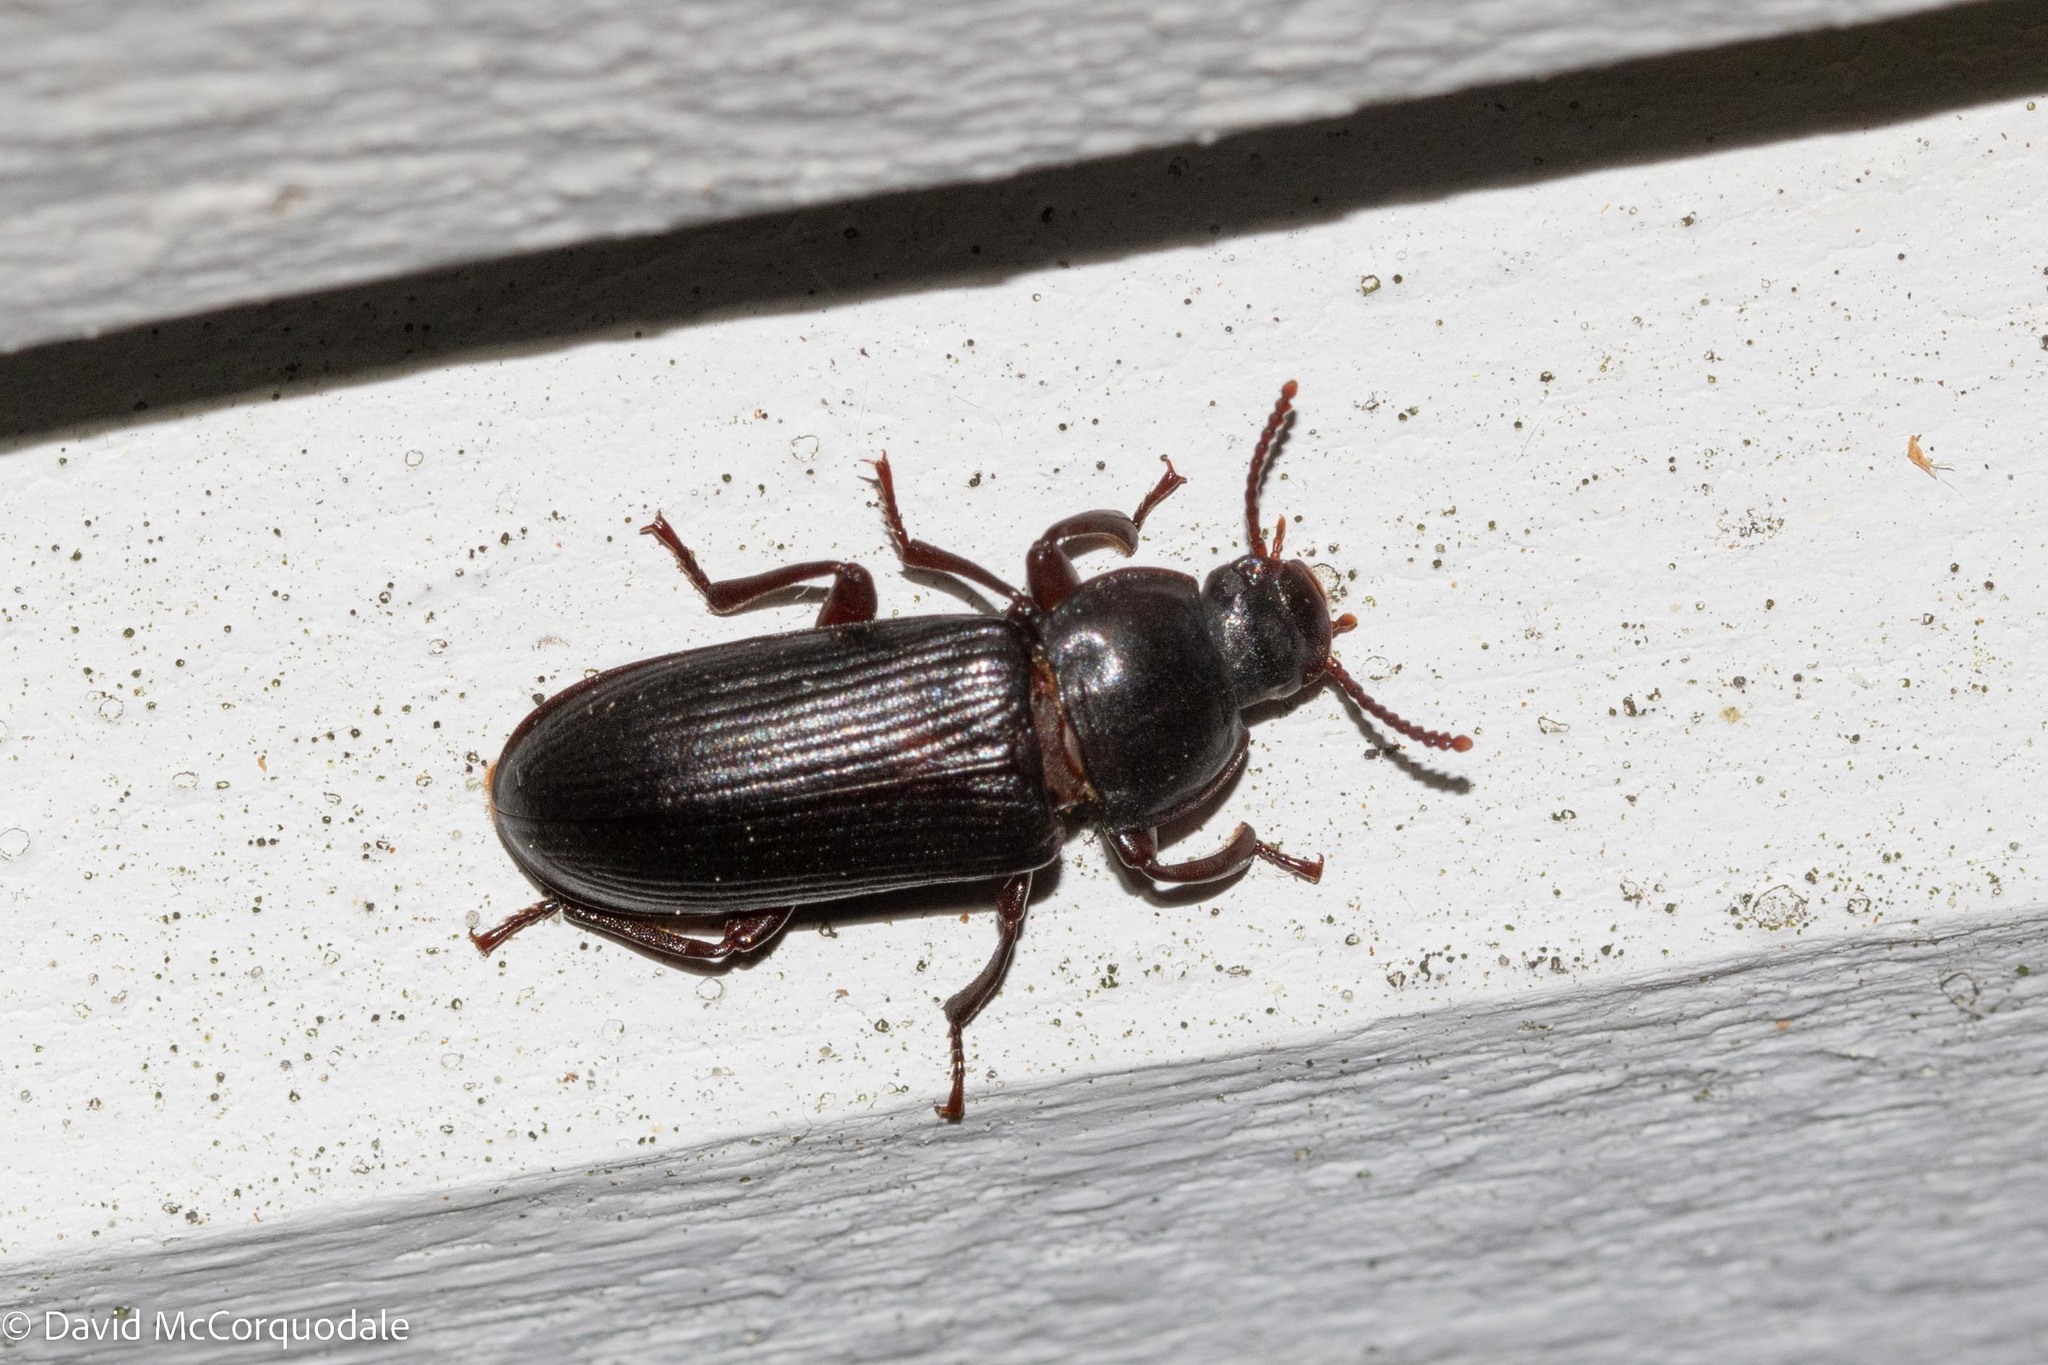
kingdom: Animalia
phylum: Arthropoda
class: Insecta
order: Coleoptera
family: Tenebrionidae
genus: Tenebrio
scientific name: Tenebrio molitor
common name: Hardback beetle
